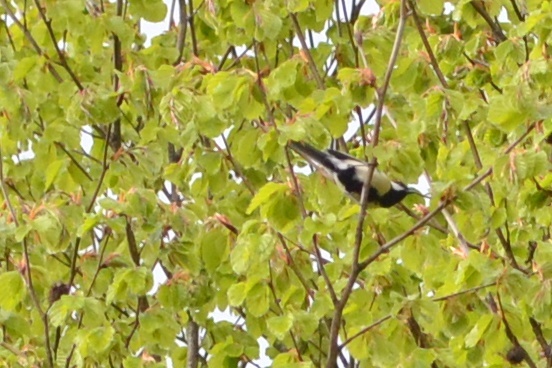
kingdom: Animalia
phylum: Chordata
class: Aves
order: Passeriformes
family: Paridae
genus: Parus
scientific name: Parus major
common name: Great tit
